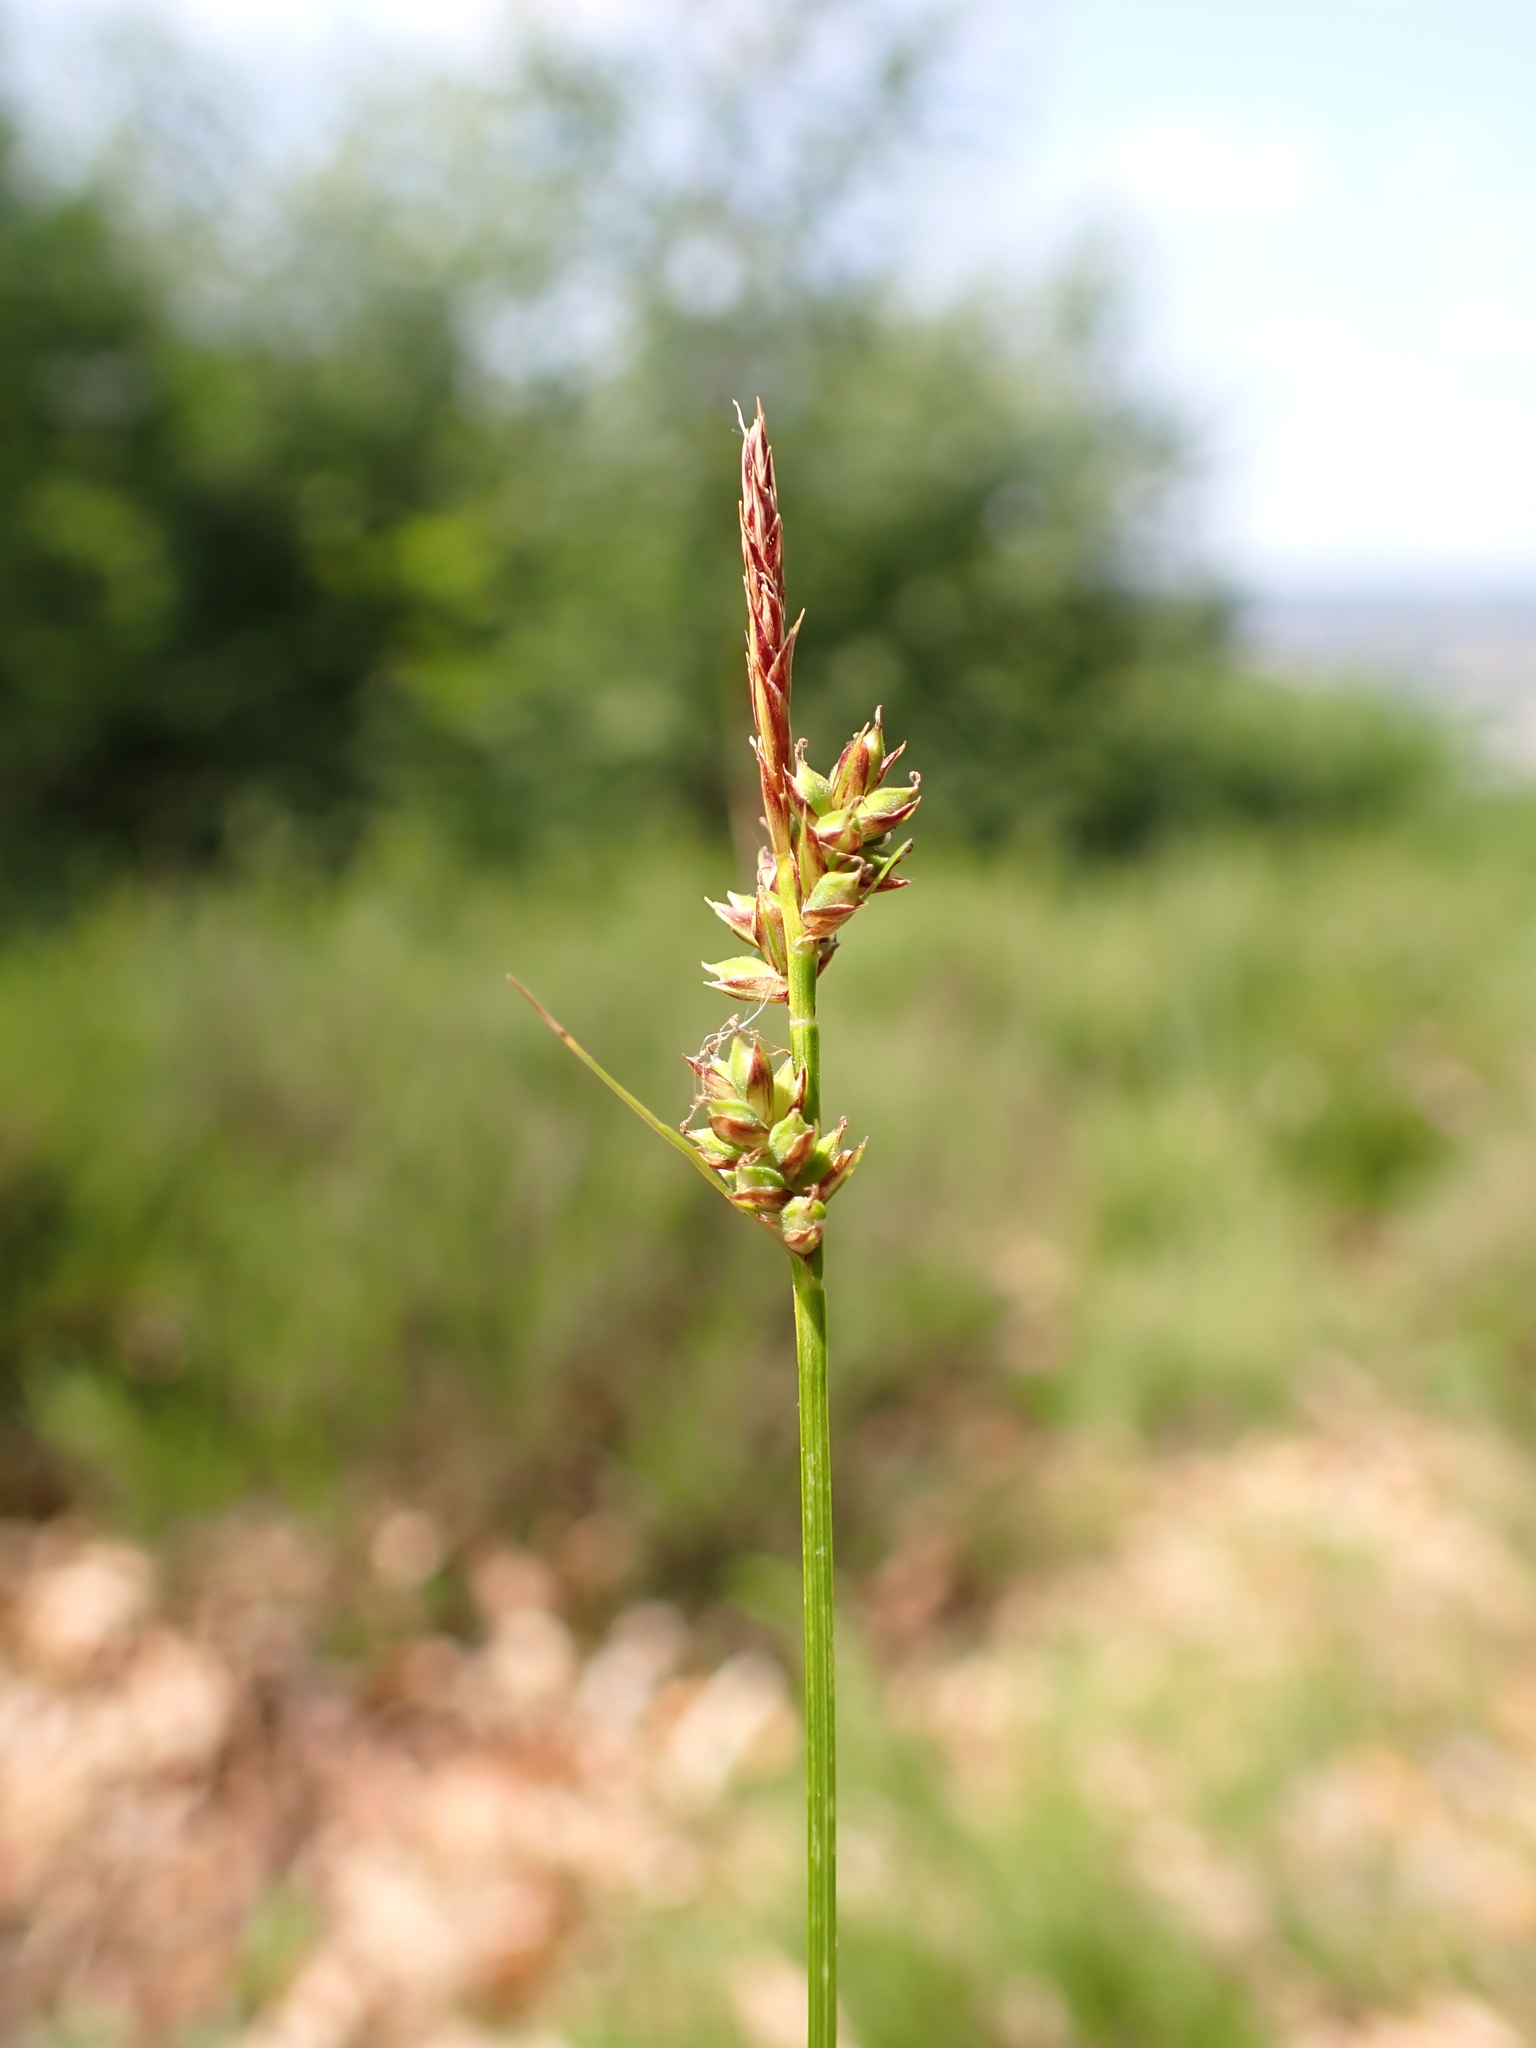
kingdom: Plantae
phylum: Tracheophyta
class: Liliopsida
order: Poales
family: Cyperaceae
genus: Carex
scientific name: Carex pilulifera
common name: Pill sedge
